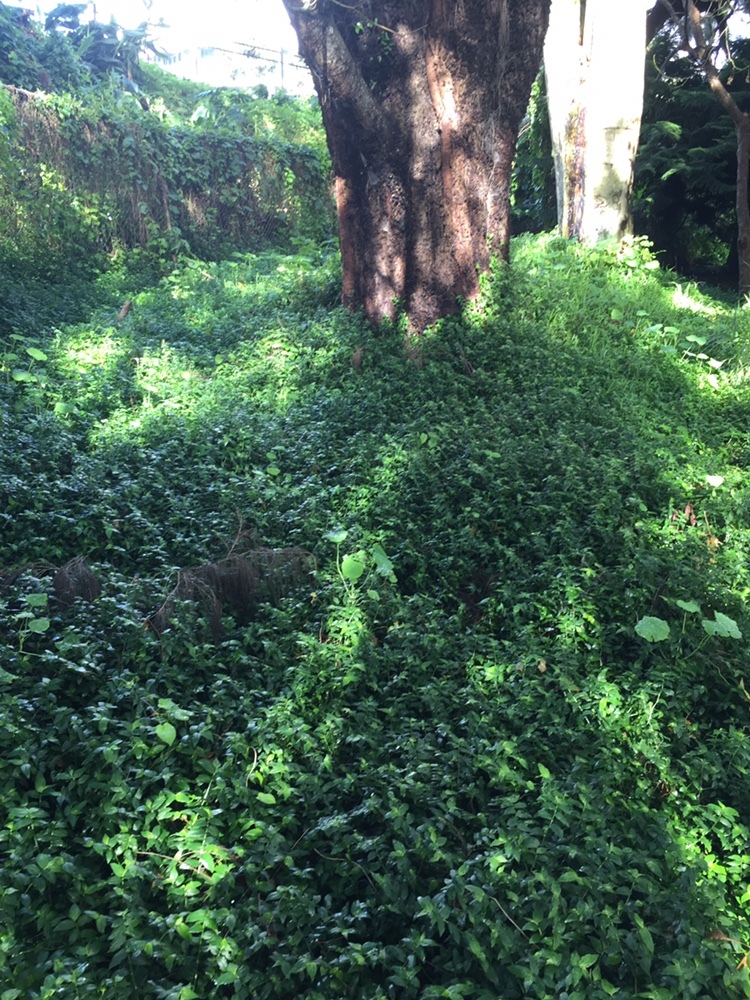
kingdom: Plantae
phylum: Tracheophyta
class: Liliopsida
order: Commelinales
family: Commelinaceae
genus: Tradescantia
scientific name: Tradescantia fluminensis
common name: Wandering-jew
